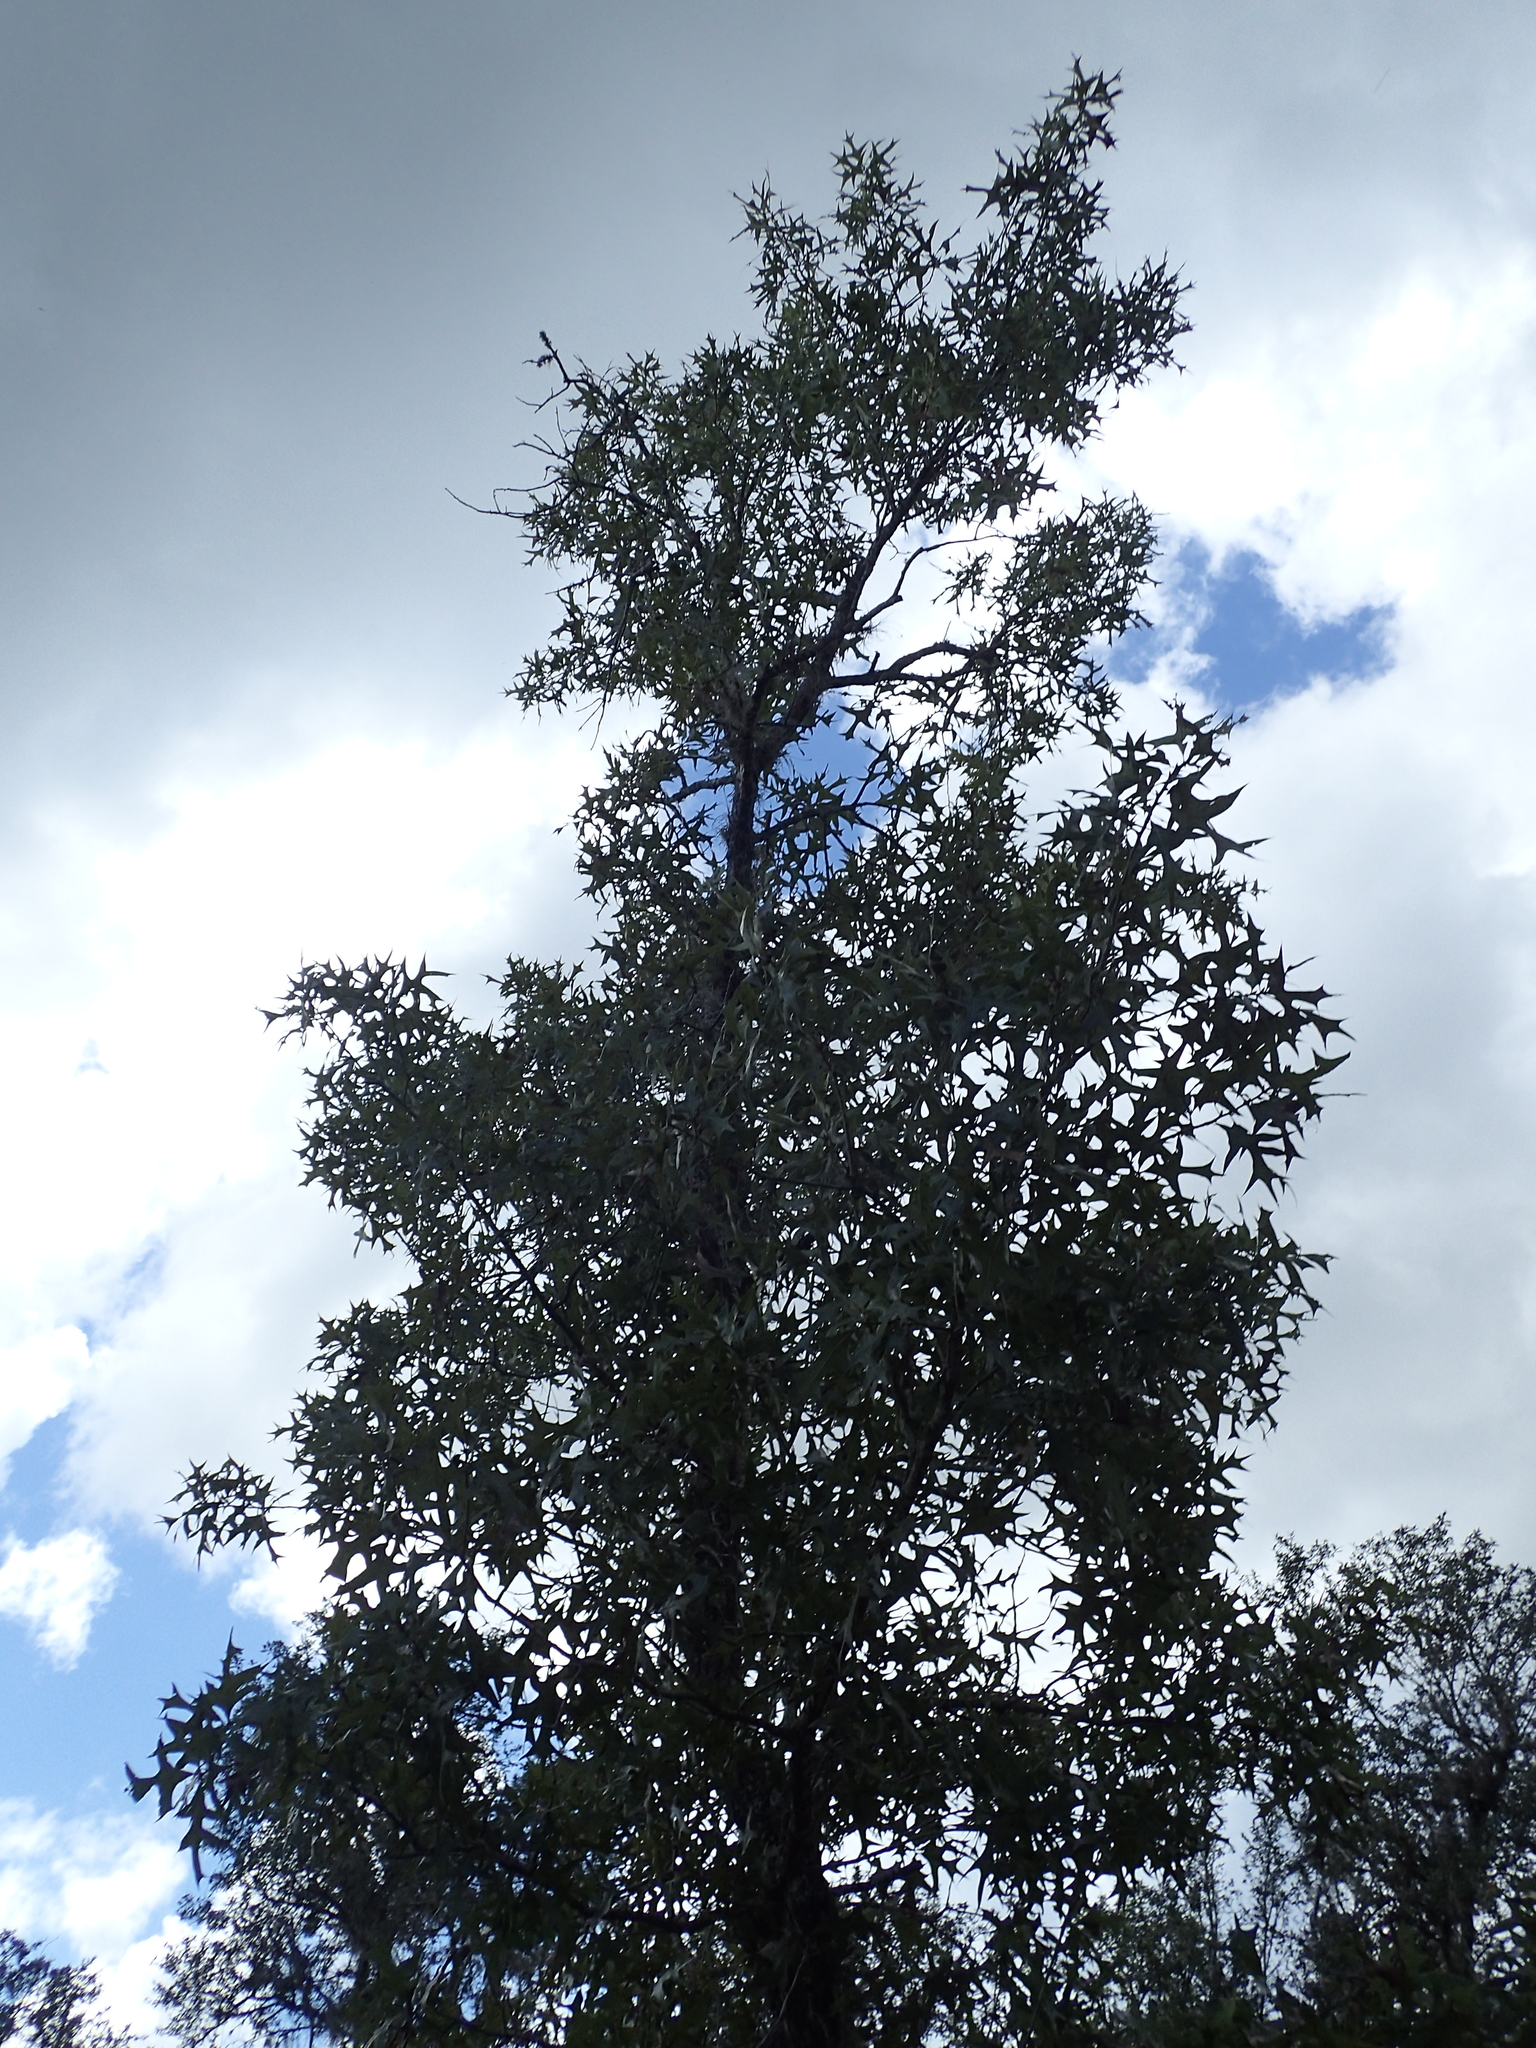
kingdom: Plantae
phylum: Tracheophyta
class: Magnoliopsida
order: Fagales
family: Fagaceae
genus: Quercus
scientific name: Quercus laevis
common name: Turkey oak
